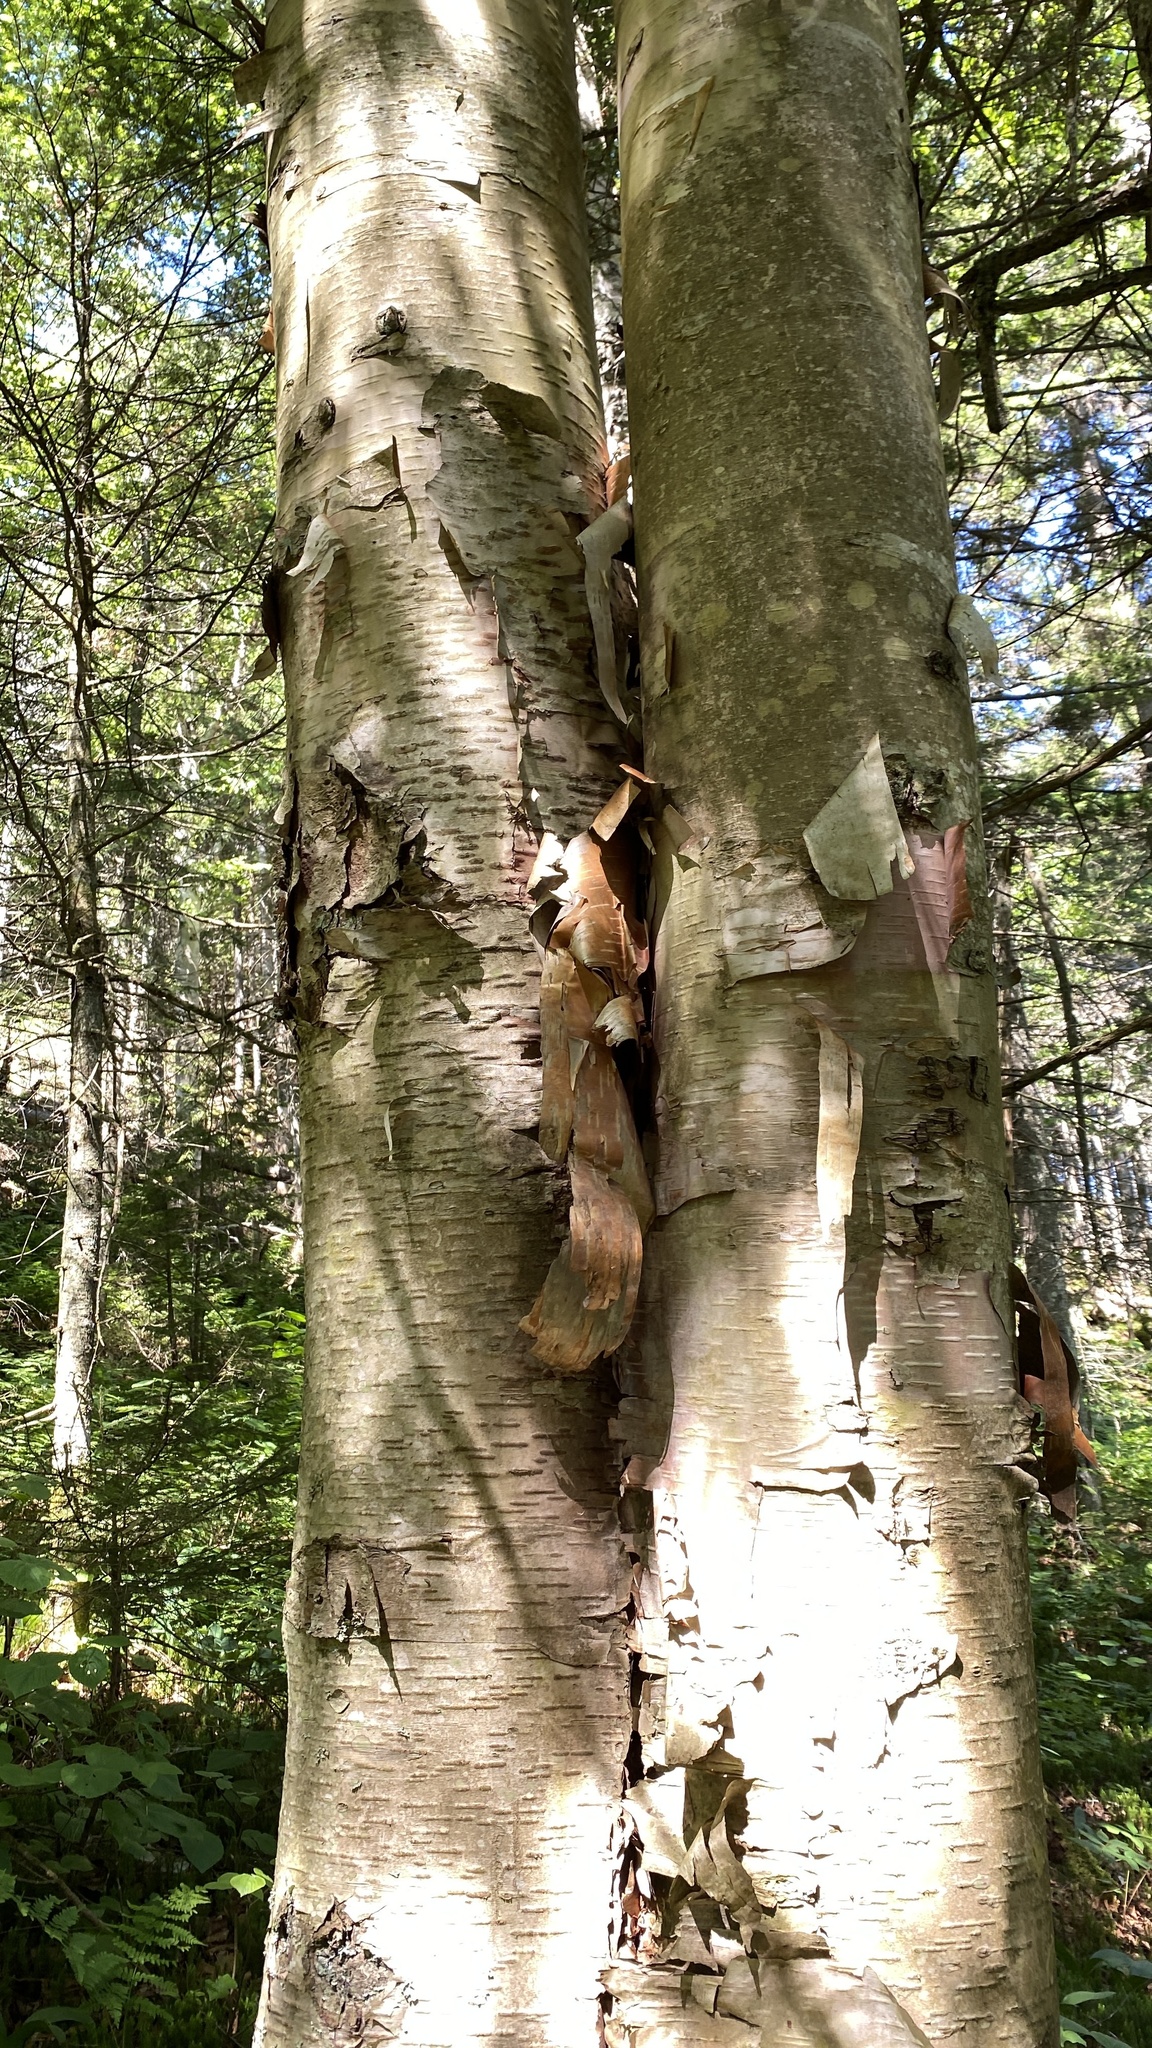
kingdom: Plantae
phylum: Tracheophyta
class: Magnoliopsida
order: Fagales
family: Betulaceae
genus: Betula
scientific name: Betula cordifolia
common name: Mountain white birch
